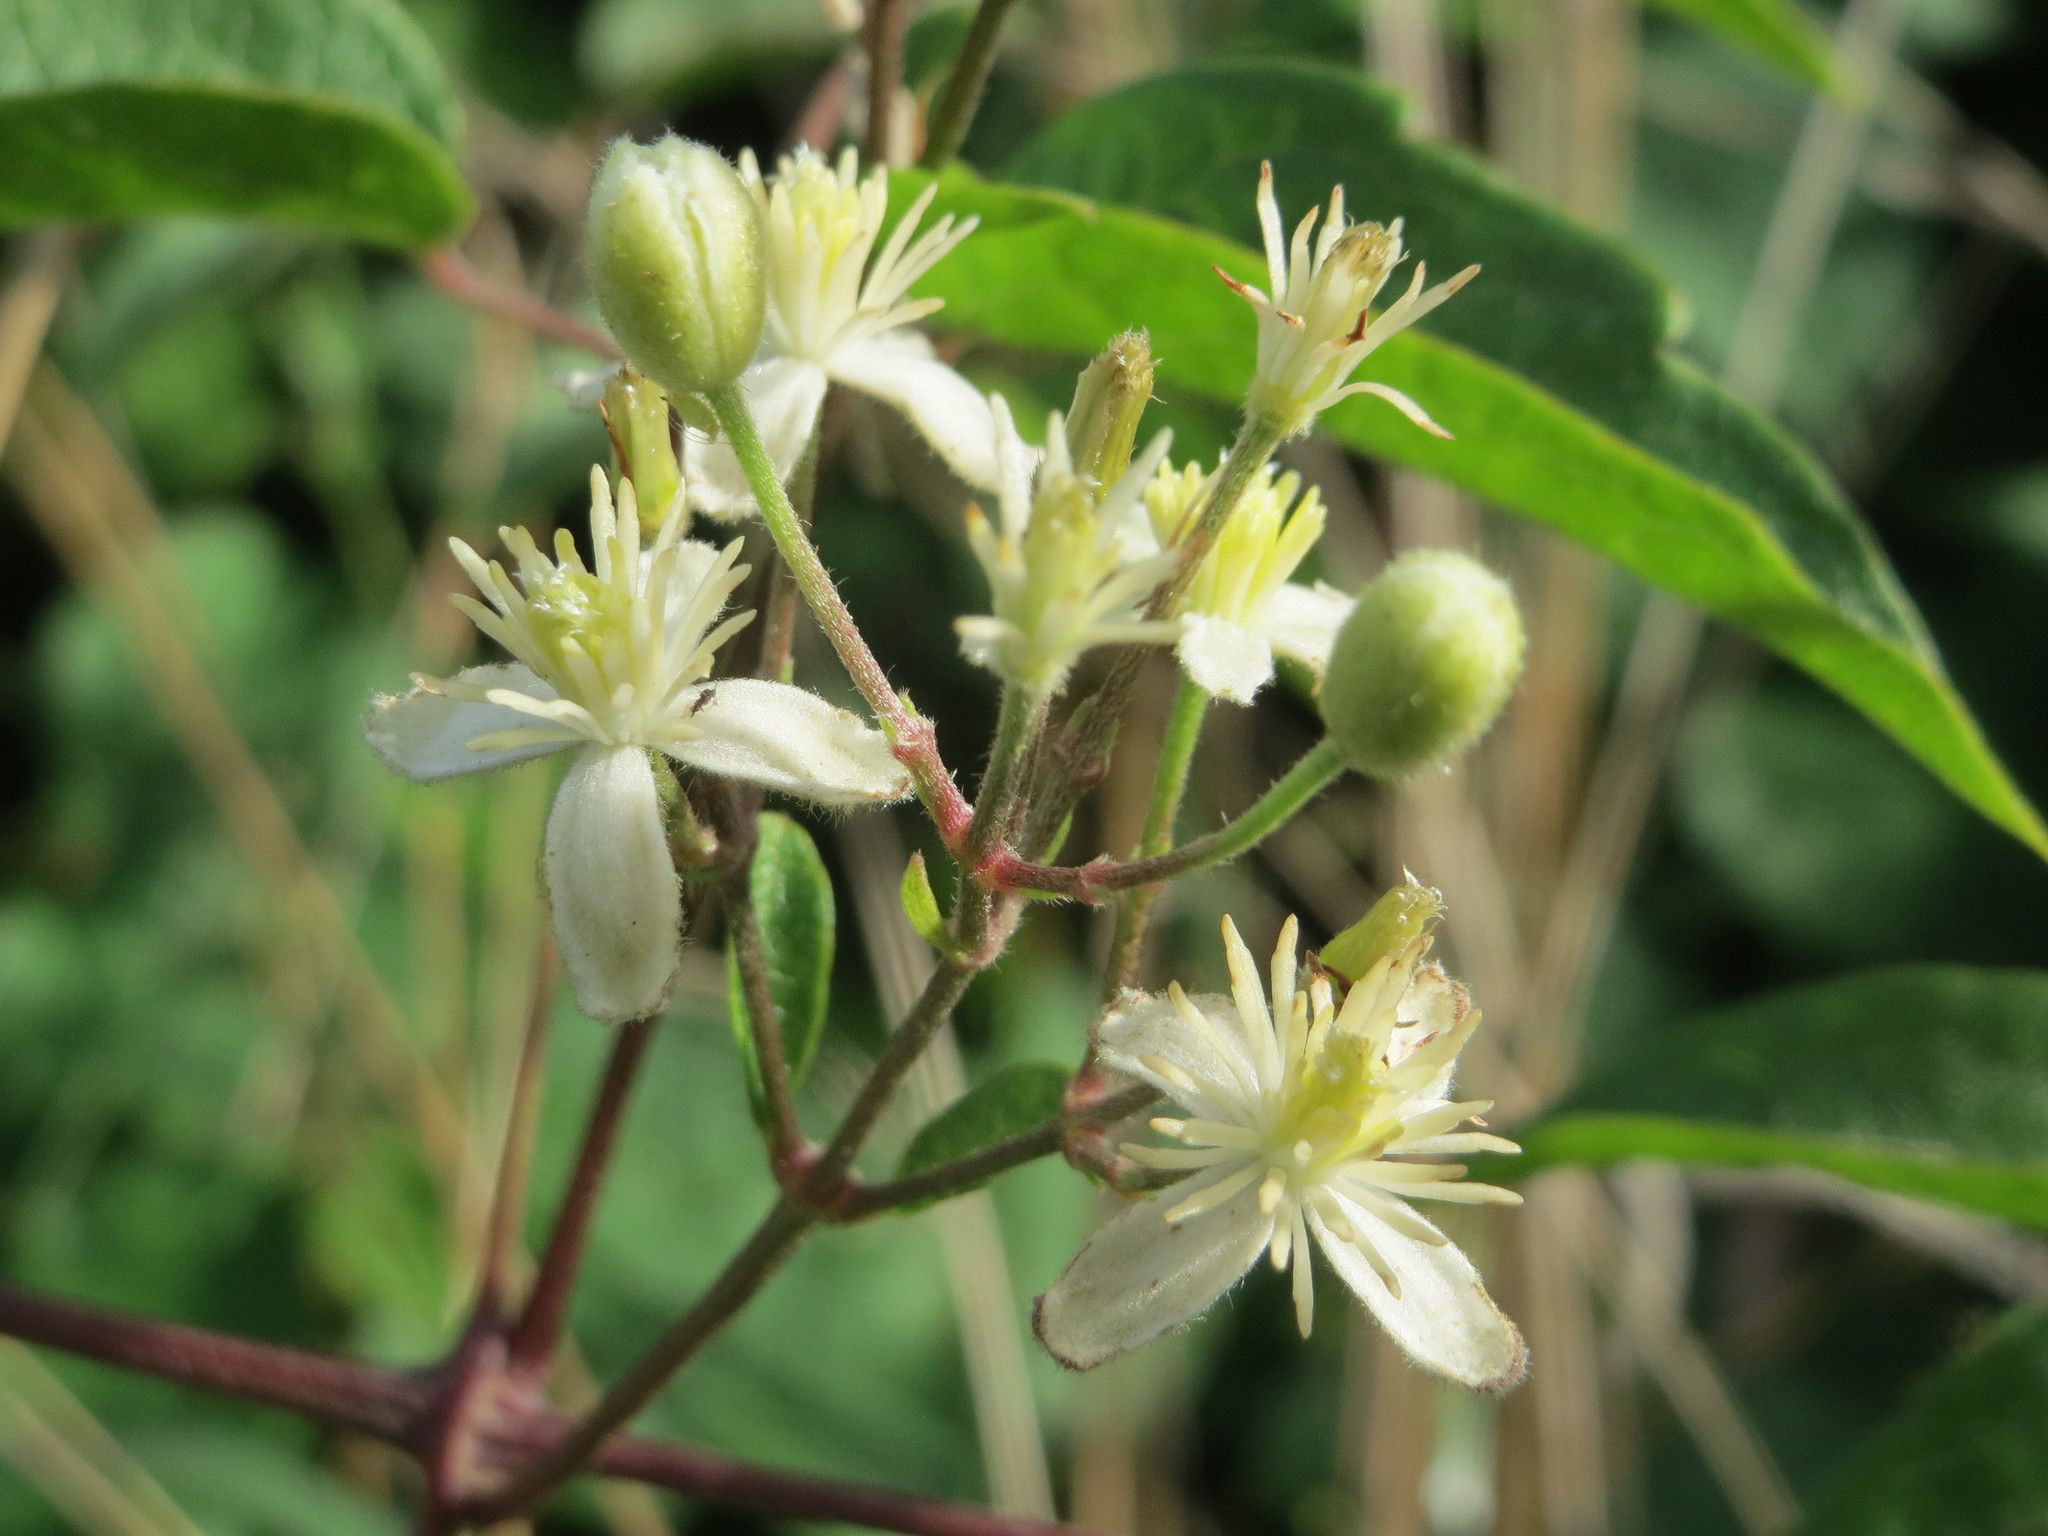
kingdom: Plantae
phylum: Tracheophyta
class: Magnoliopsida
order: Ranunculales
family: Ranunculaceae
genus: Clematis
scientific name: Clematis vitalba
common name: Evergreen clematis
